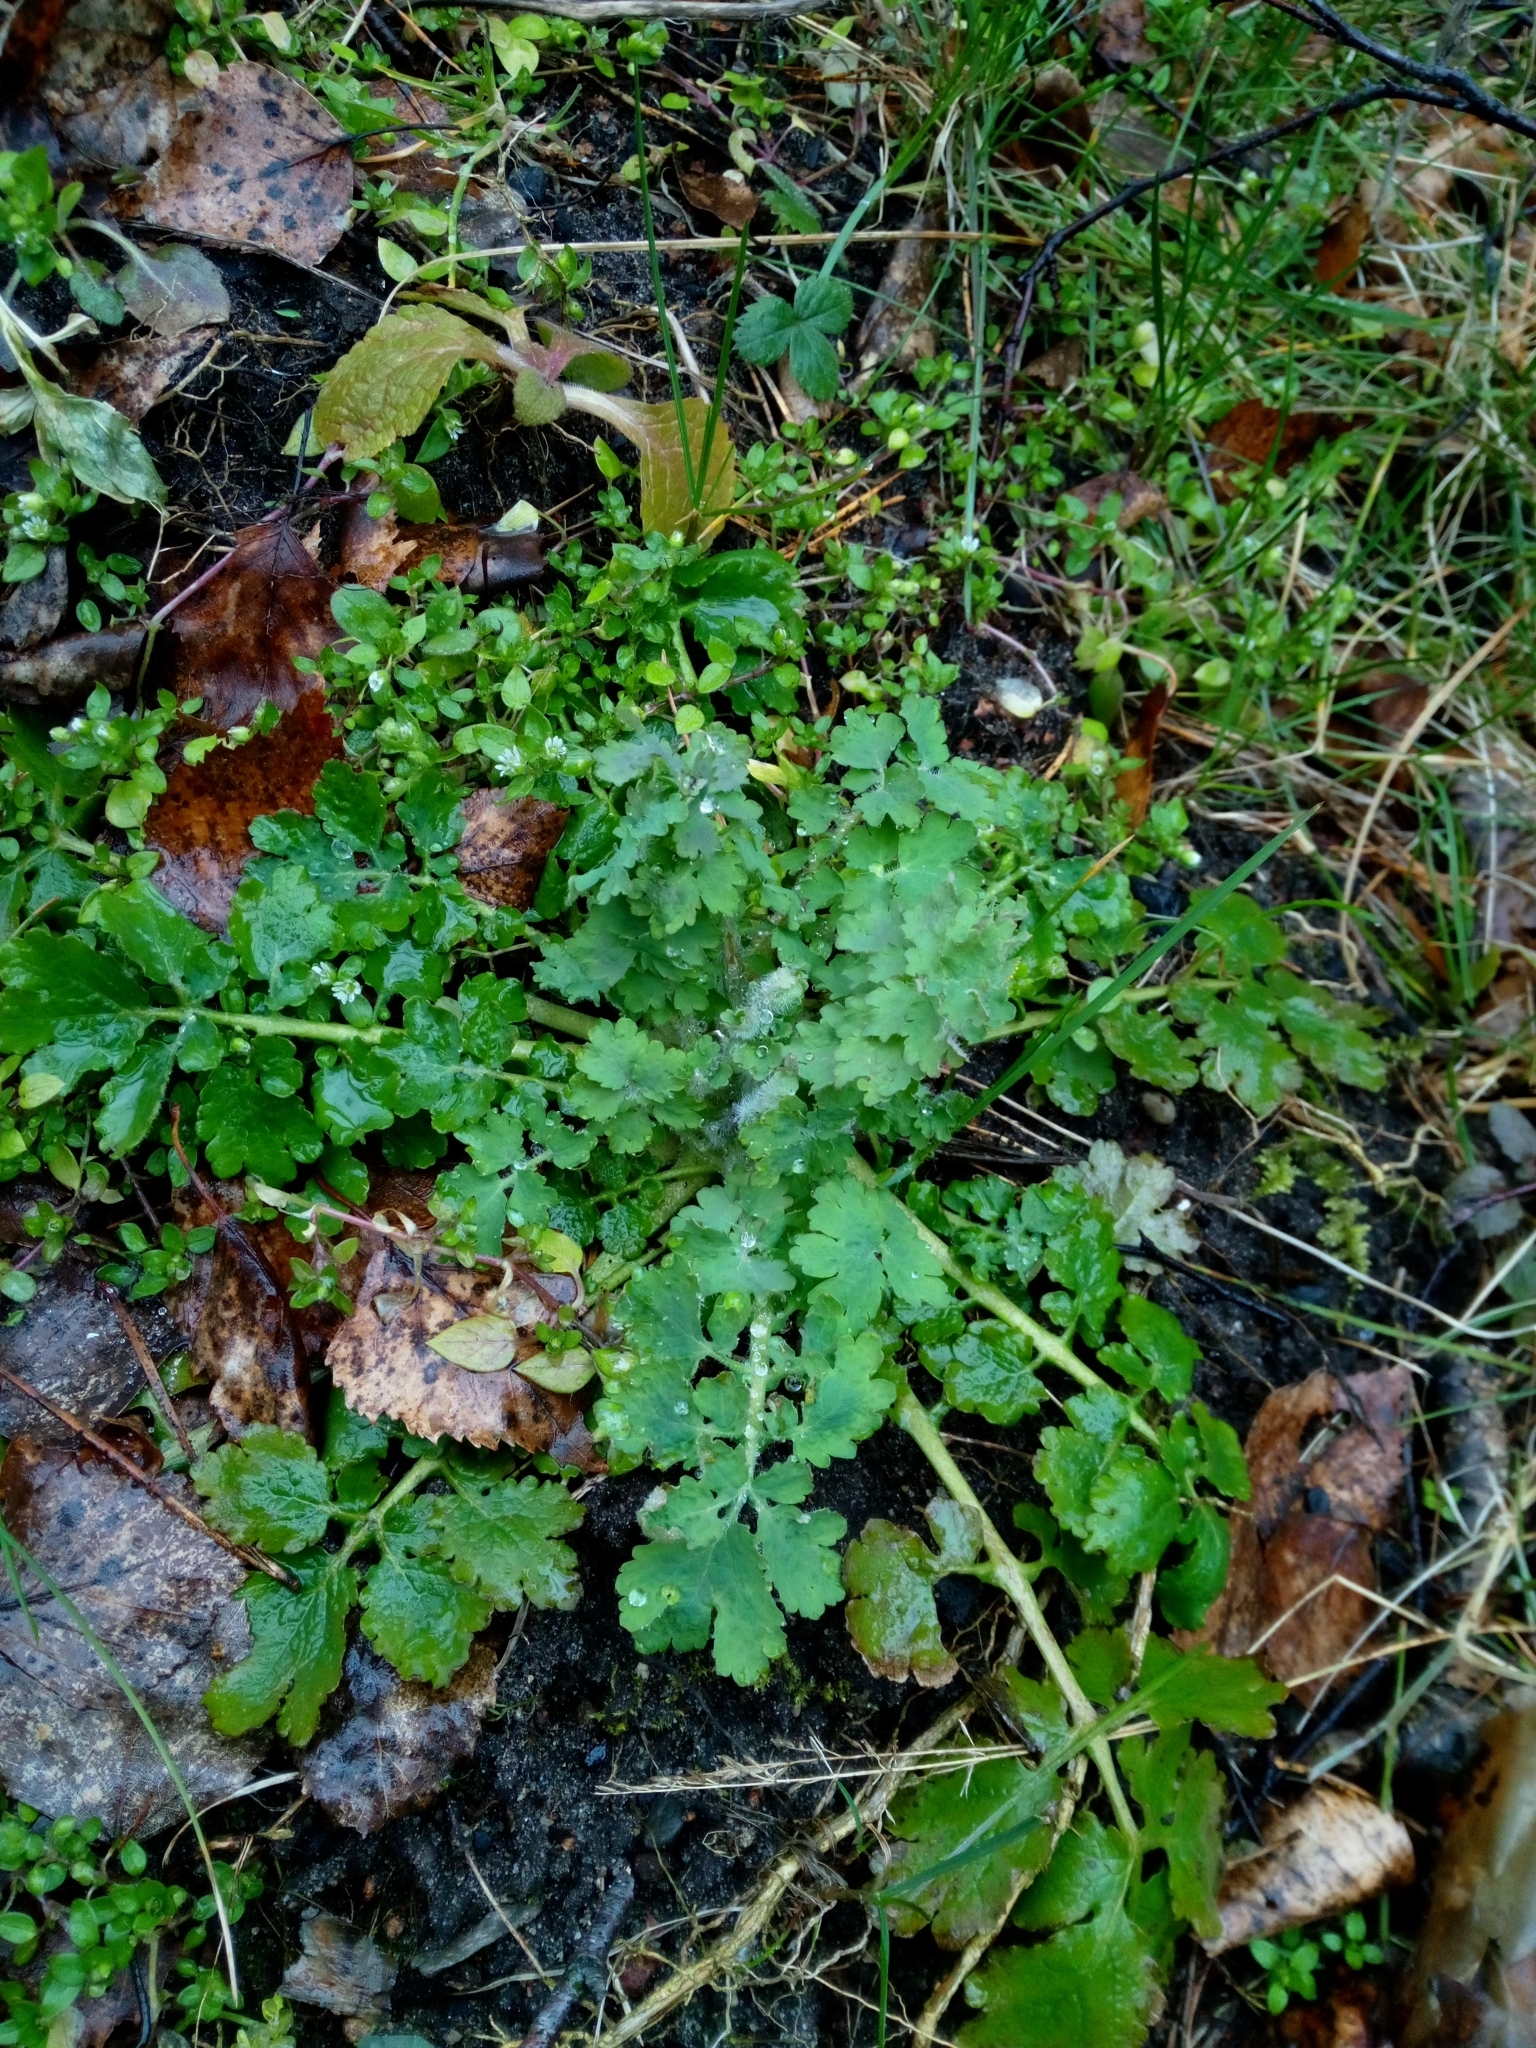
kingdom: Plantae
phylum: Tracheophyta
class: Magnoliopsida
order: Ranunculales
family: Papaveraceae
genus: Chelidonium
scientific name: Chelidonium majus
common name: Greater celandine
